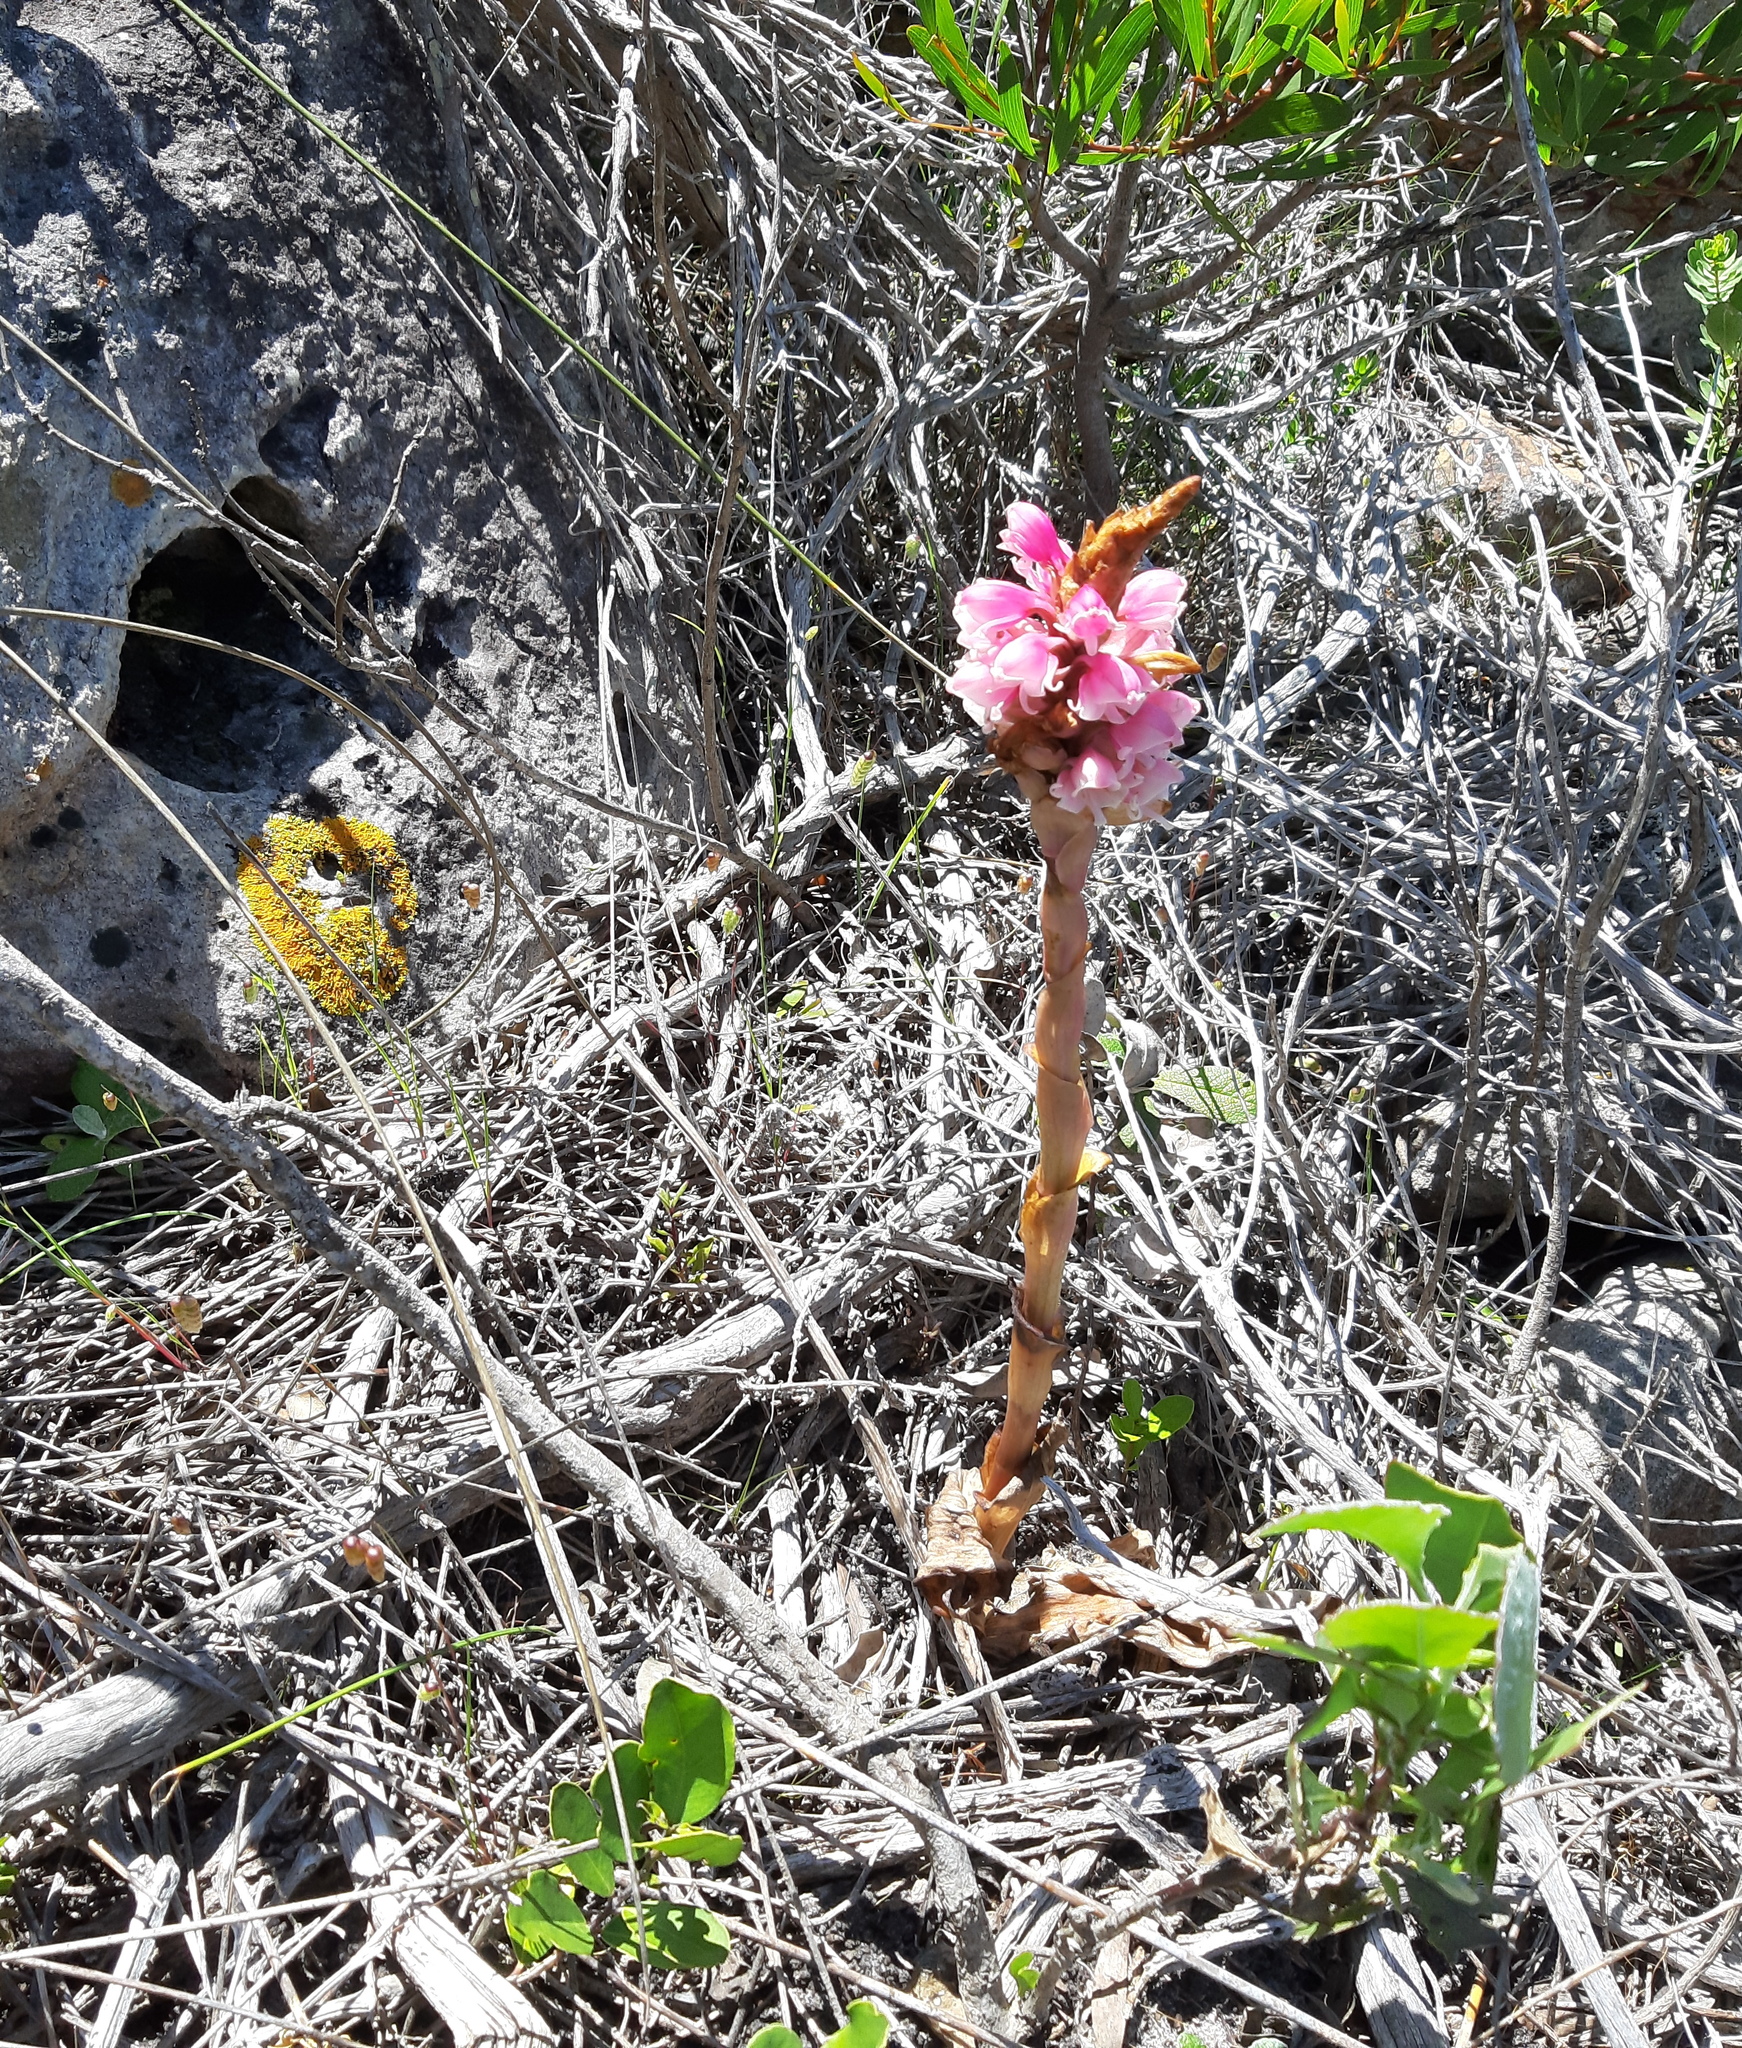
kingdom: Plantae
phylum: Tracheophyta
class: Liliopsida
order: Asparagales
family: Orchidaceae
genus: Satyrium
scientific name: Satyrium carneum
